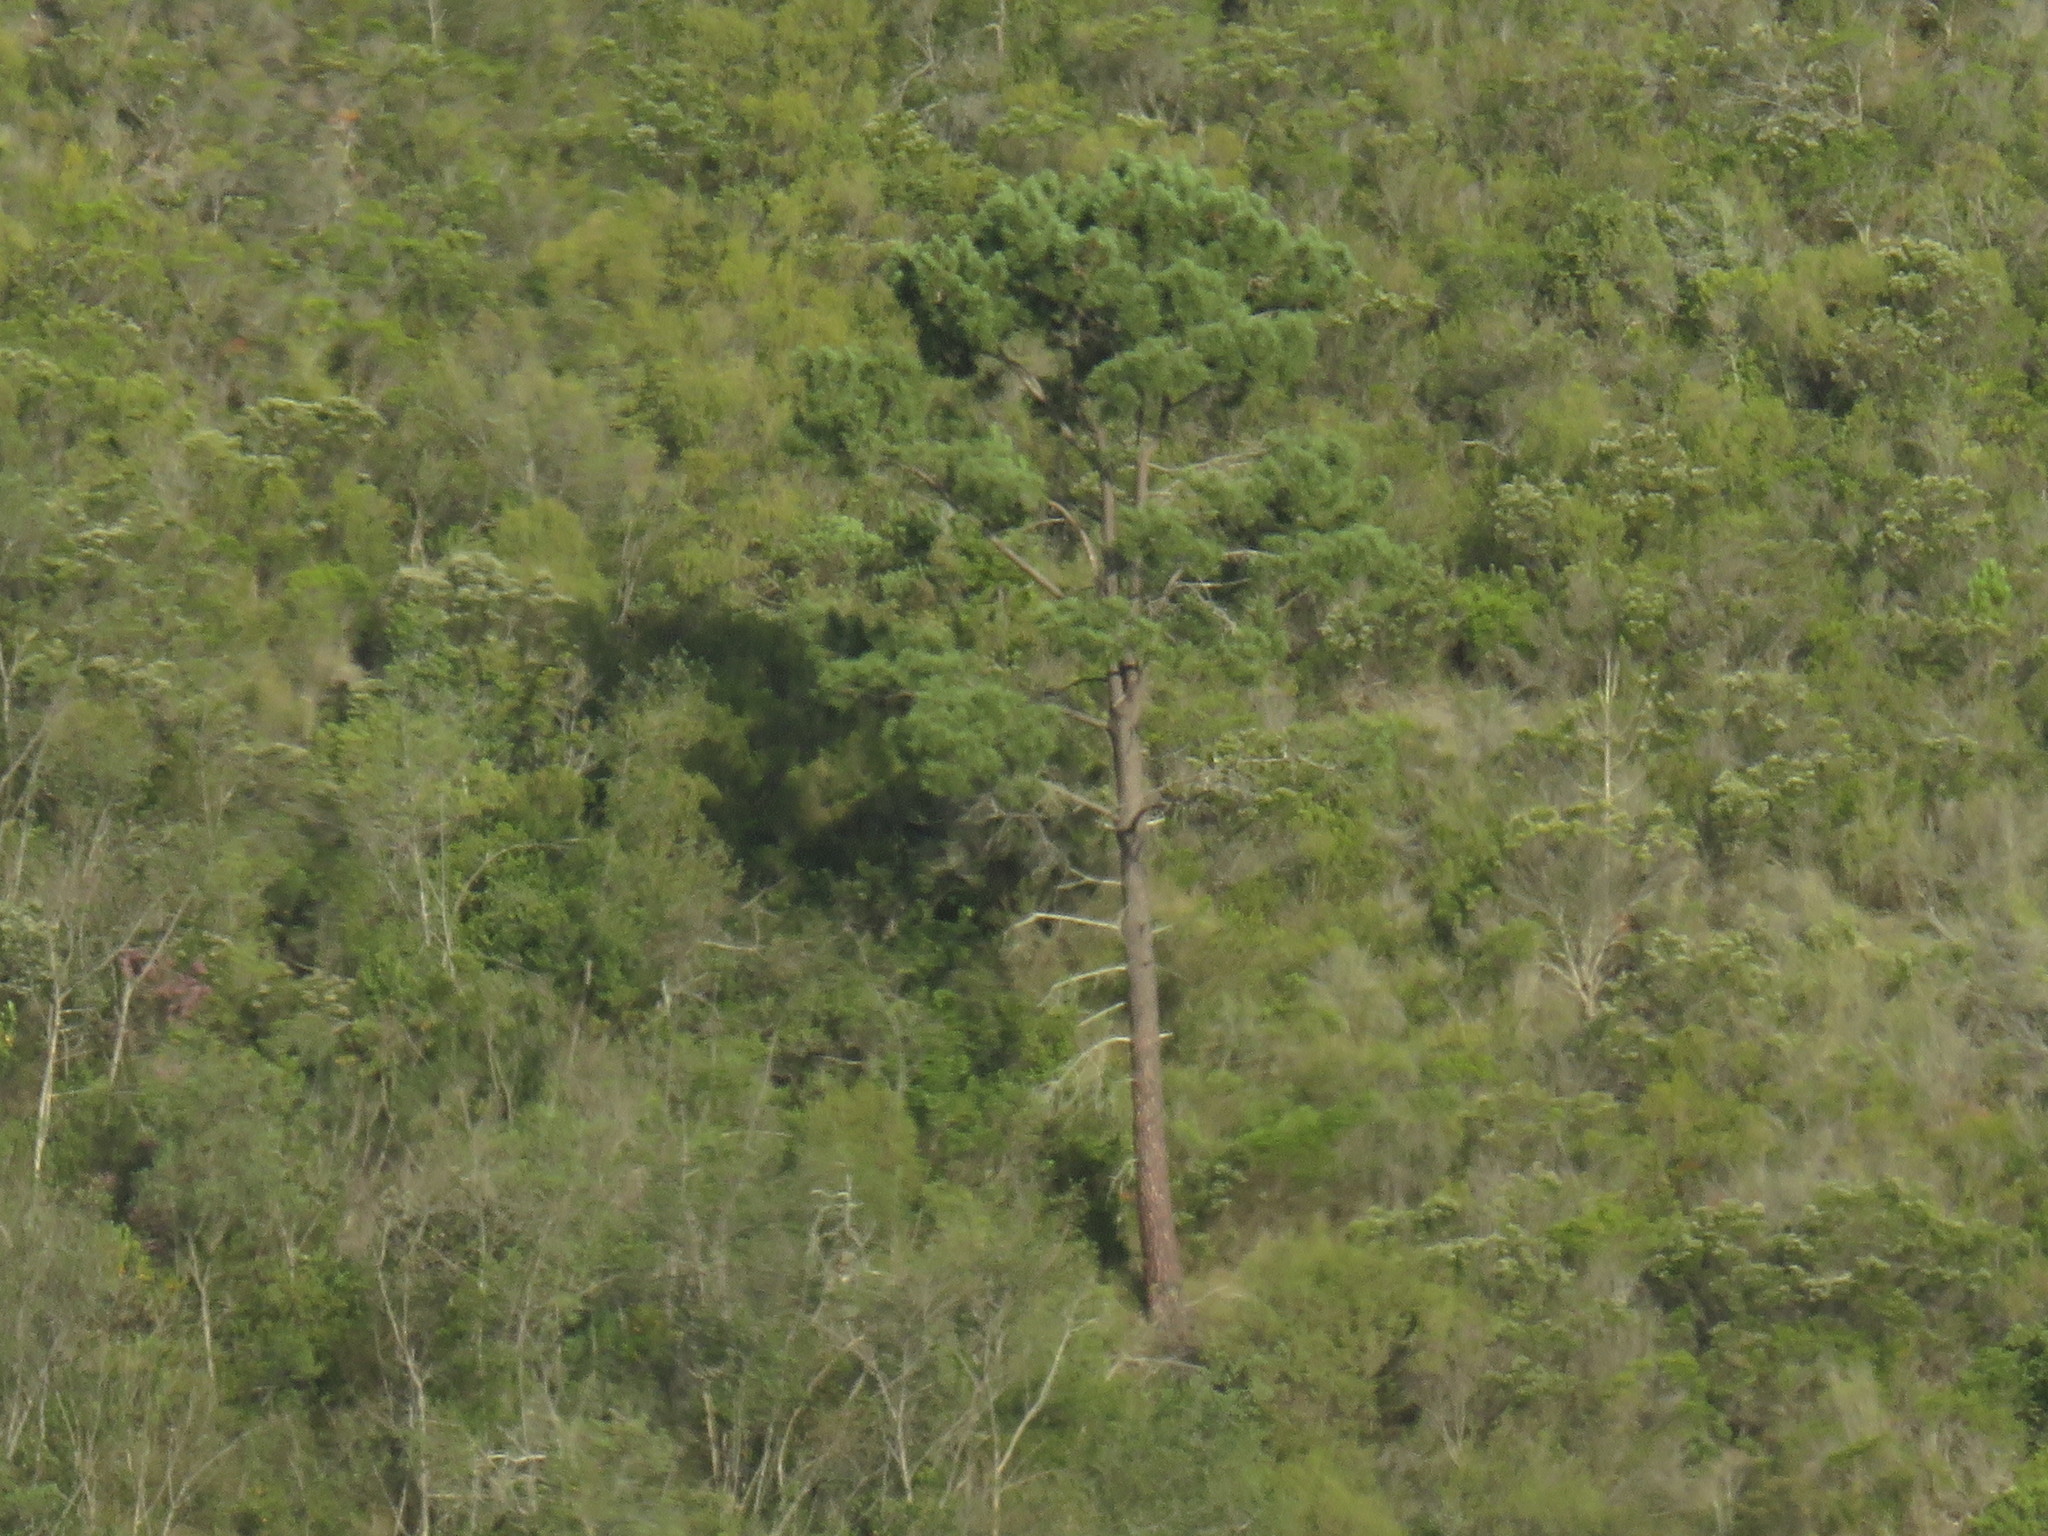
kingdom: Plantae
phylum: Tracheophyta
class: Pinopsida
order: Pinales
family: Pinaceae
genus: Pinus
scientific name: Pinus pinaster
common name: Maritime pine
